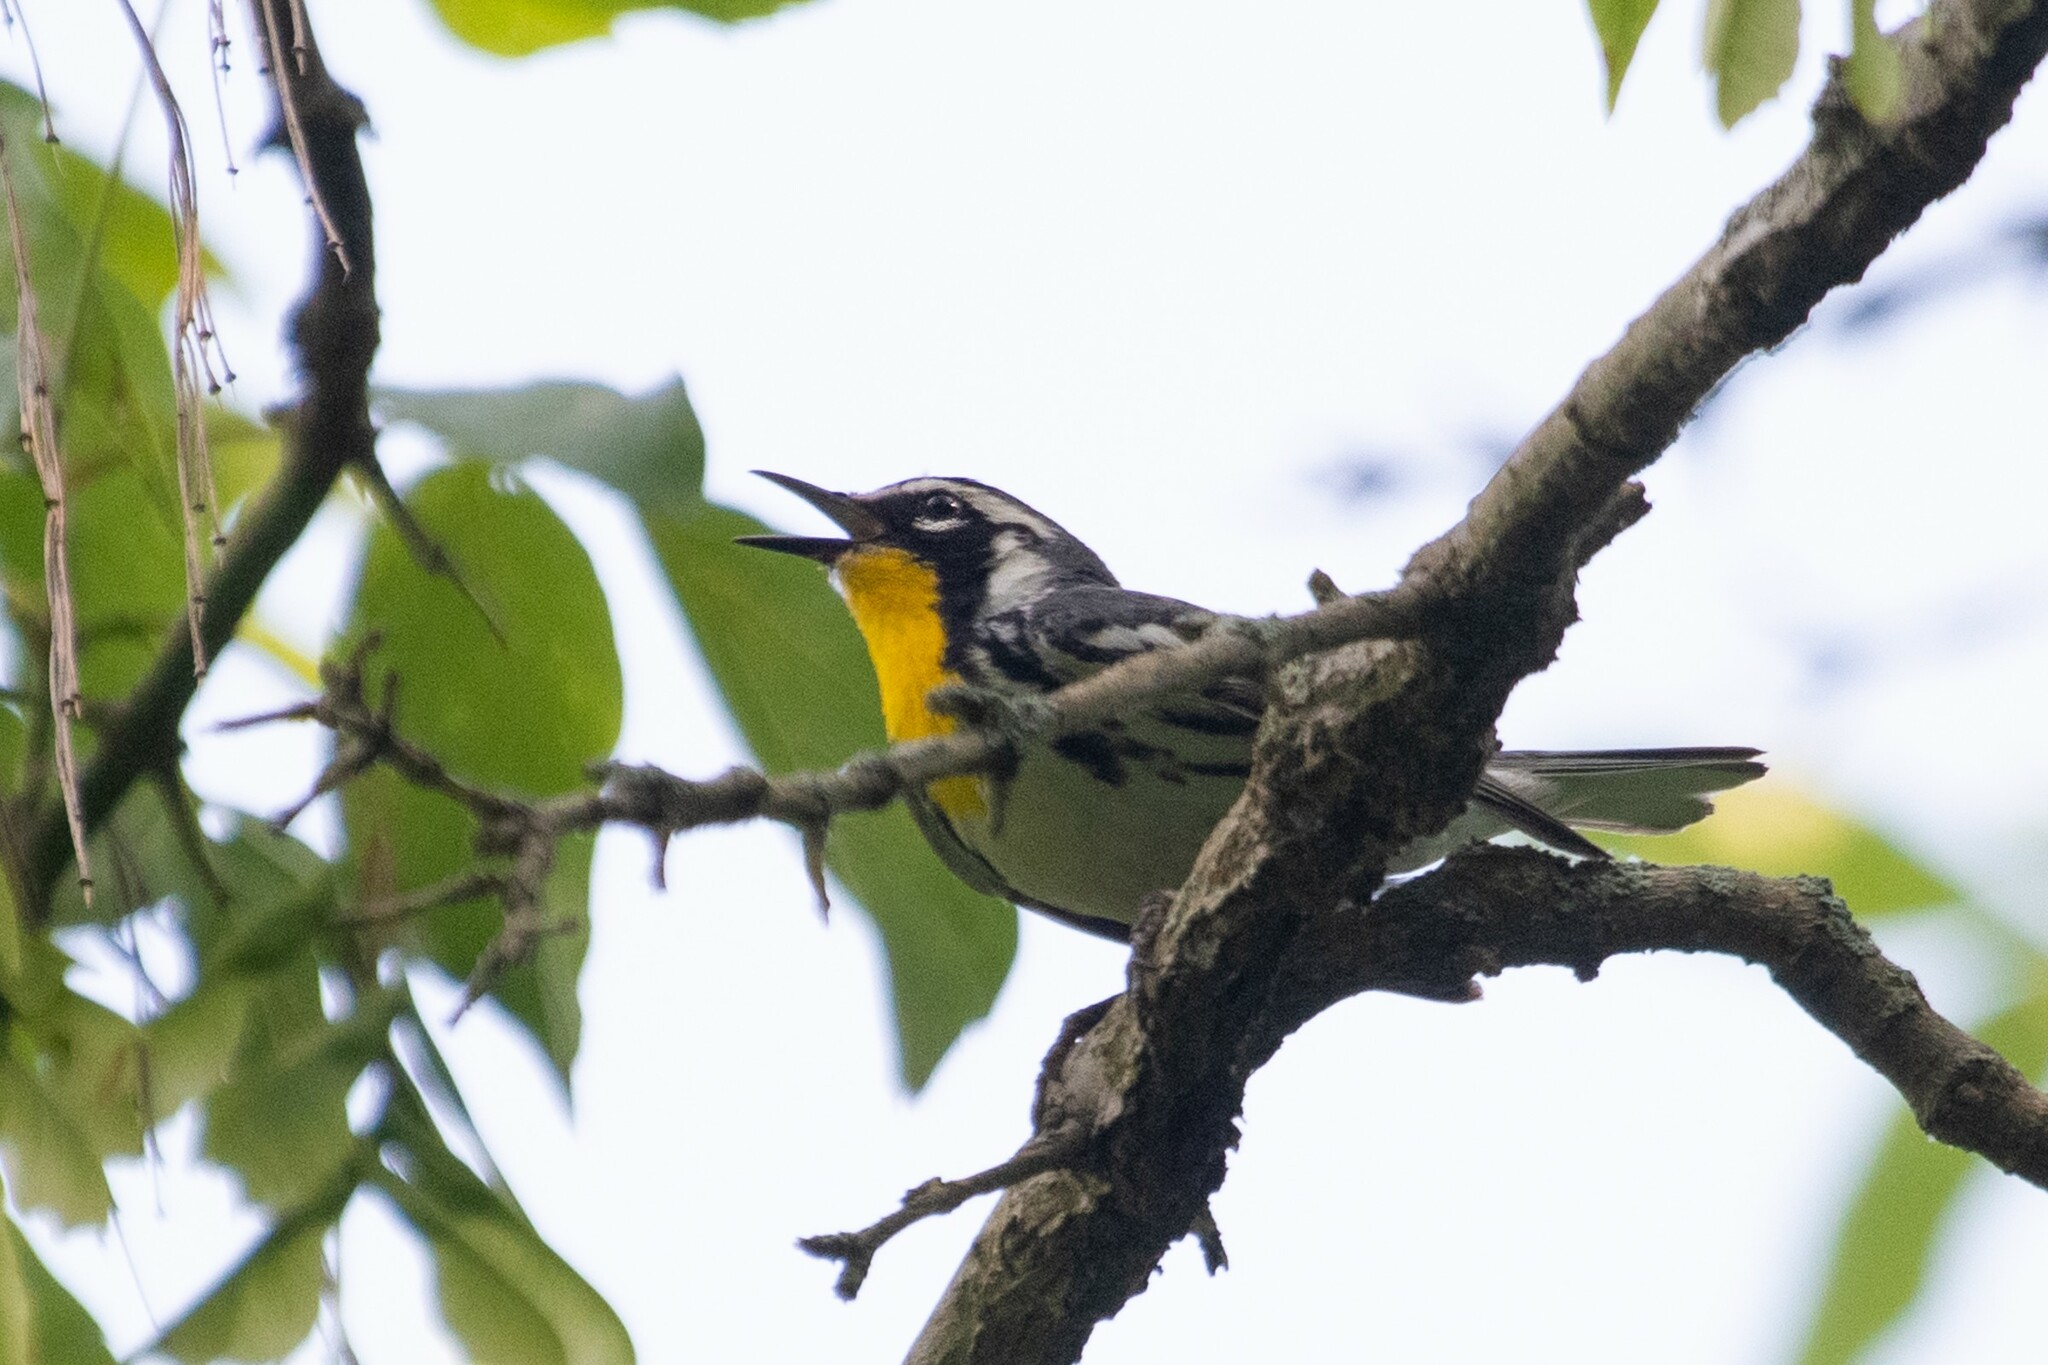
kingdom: Animalia
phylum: Chordata
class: Aves
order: Passeriformes
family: Parulidae
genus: Setophaga
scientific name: Setophaga dominica
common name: Yellow-throated warbler
